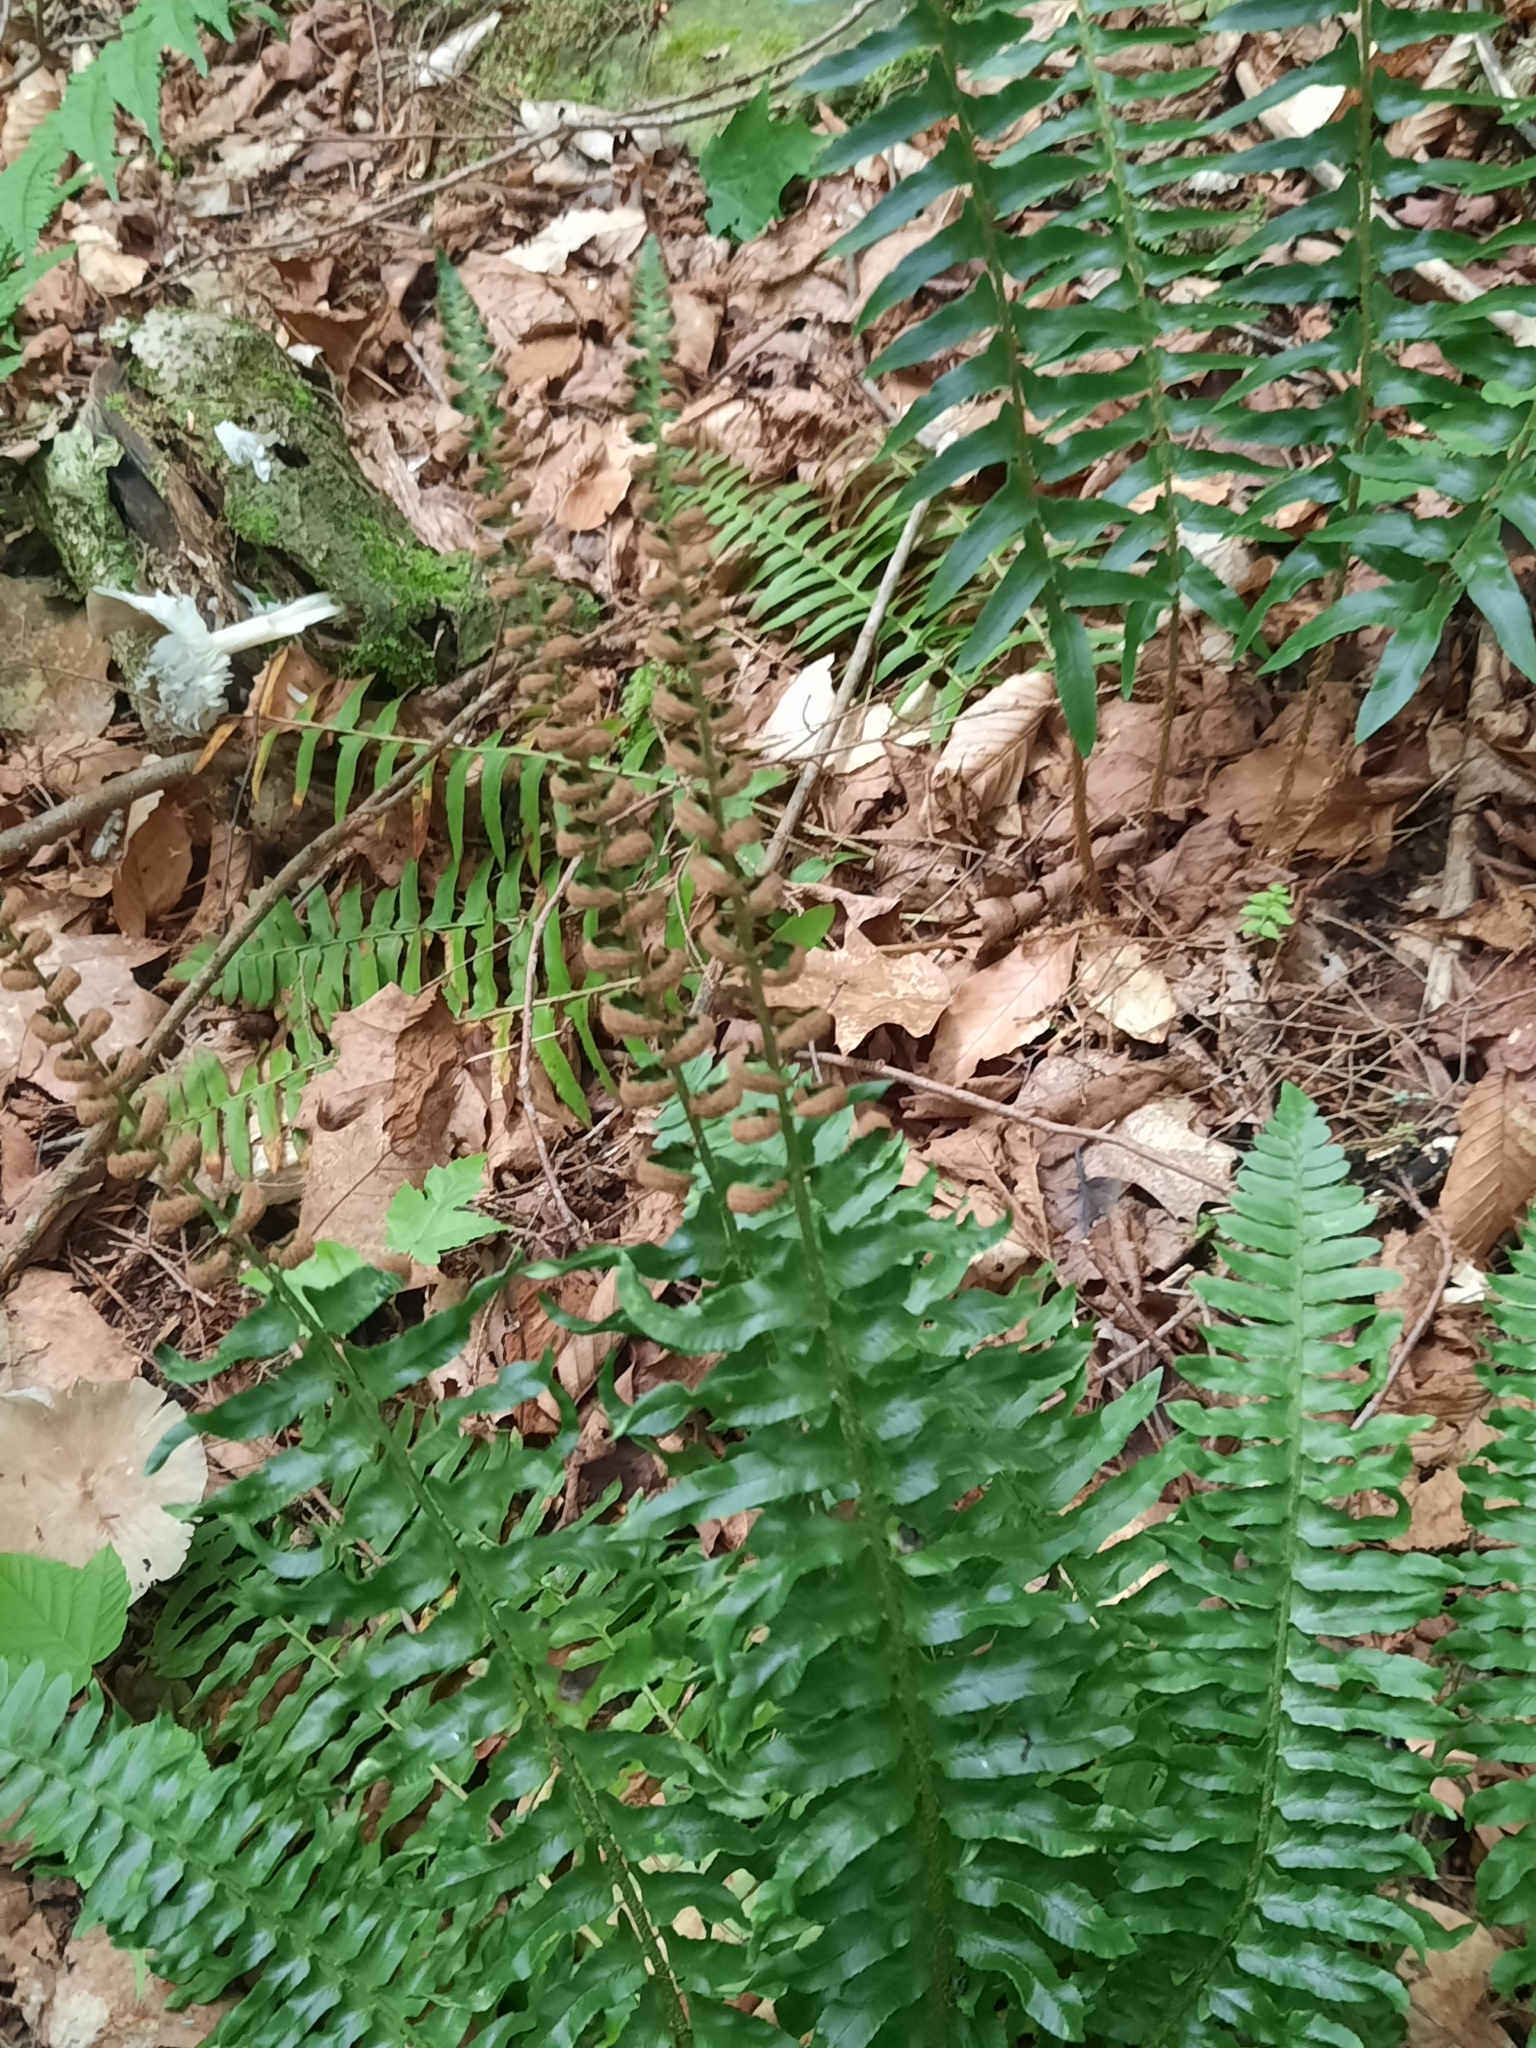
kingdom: Plantae
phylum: Tracheophyta
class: Polypodiopsida
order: Polypodiales
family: Dryopteridaceae
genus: Polystichum
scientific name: Polystichum acrostichoides
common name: Christmas fern
